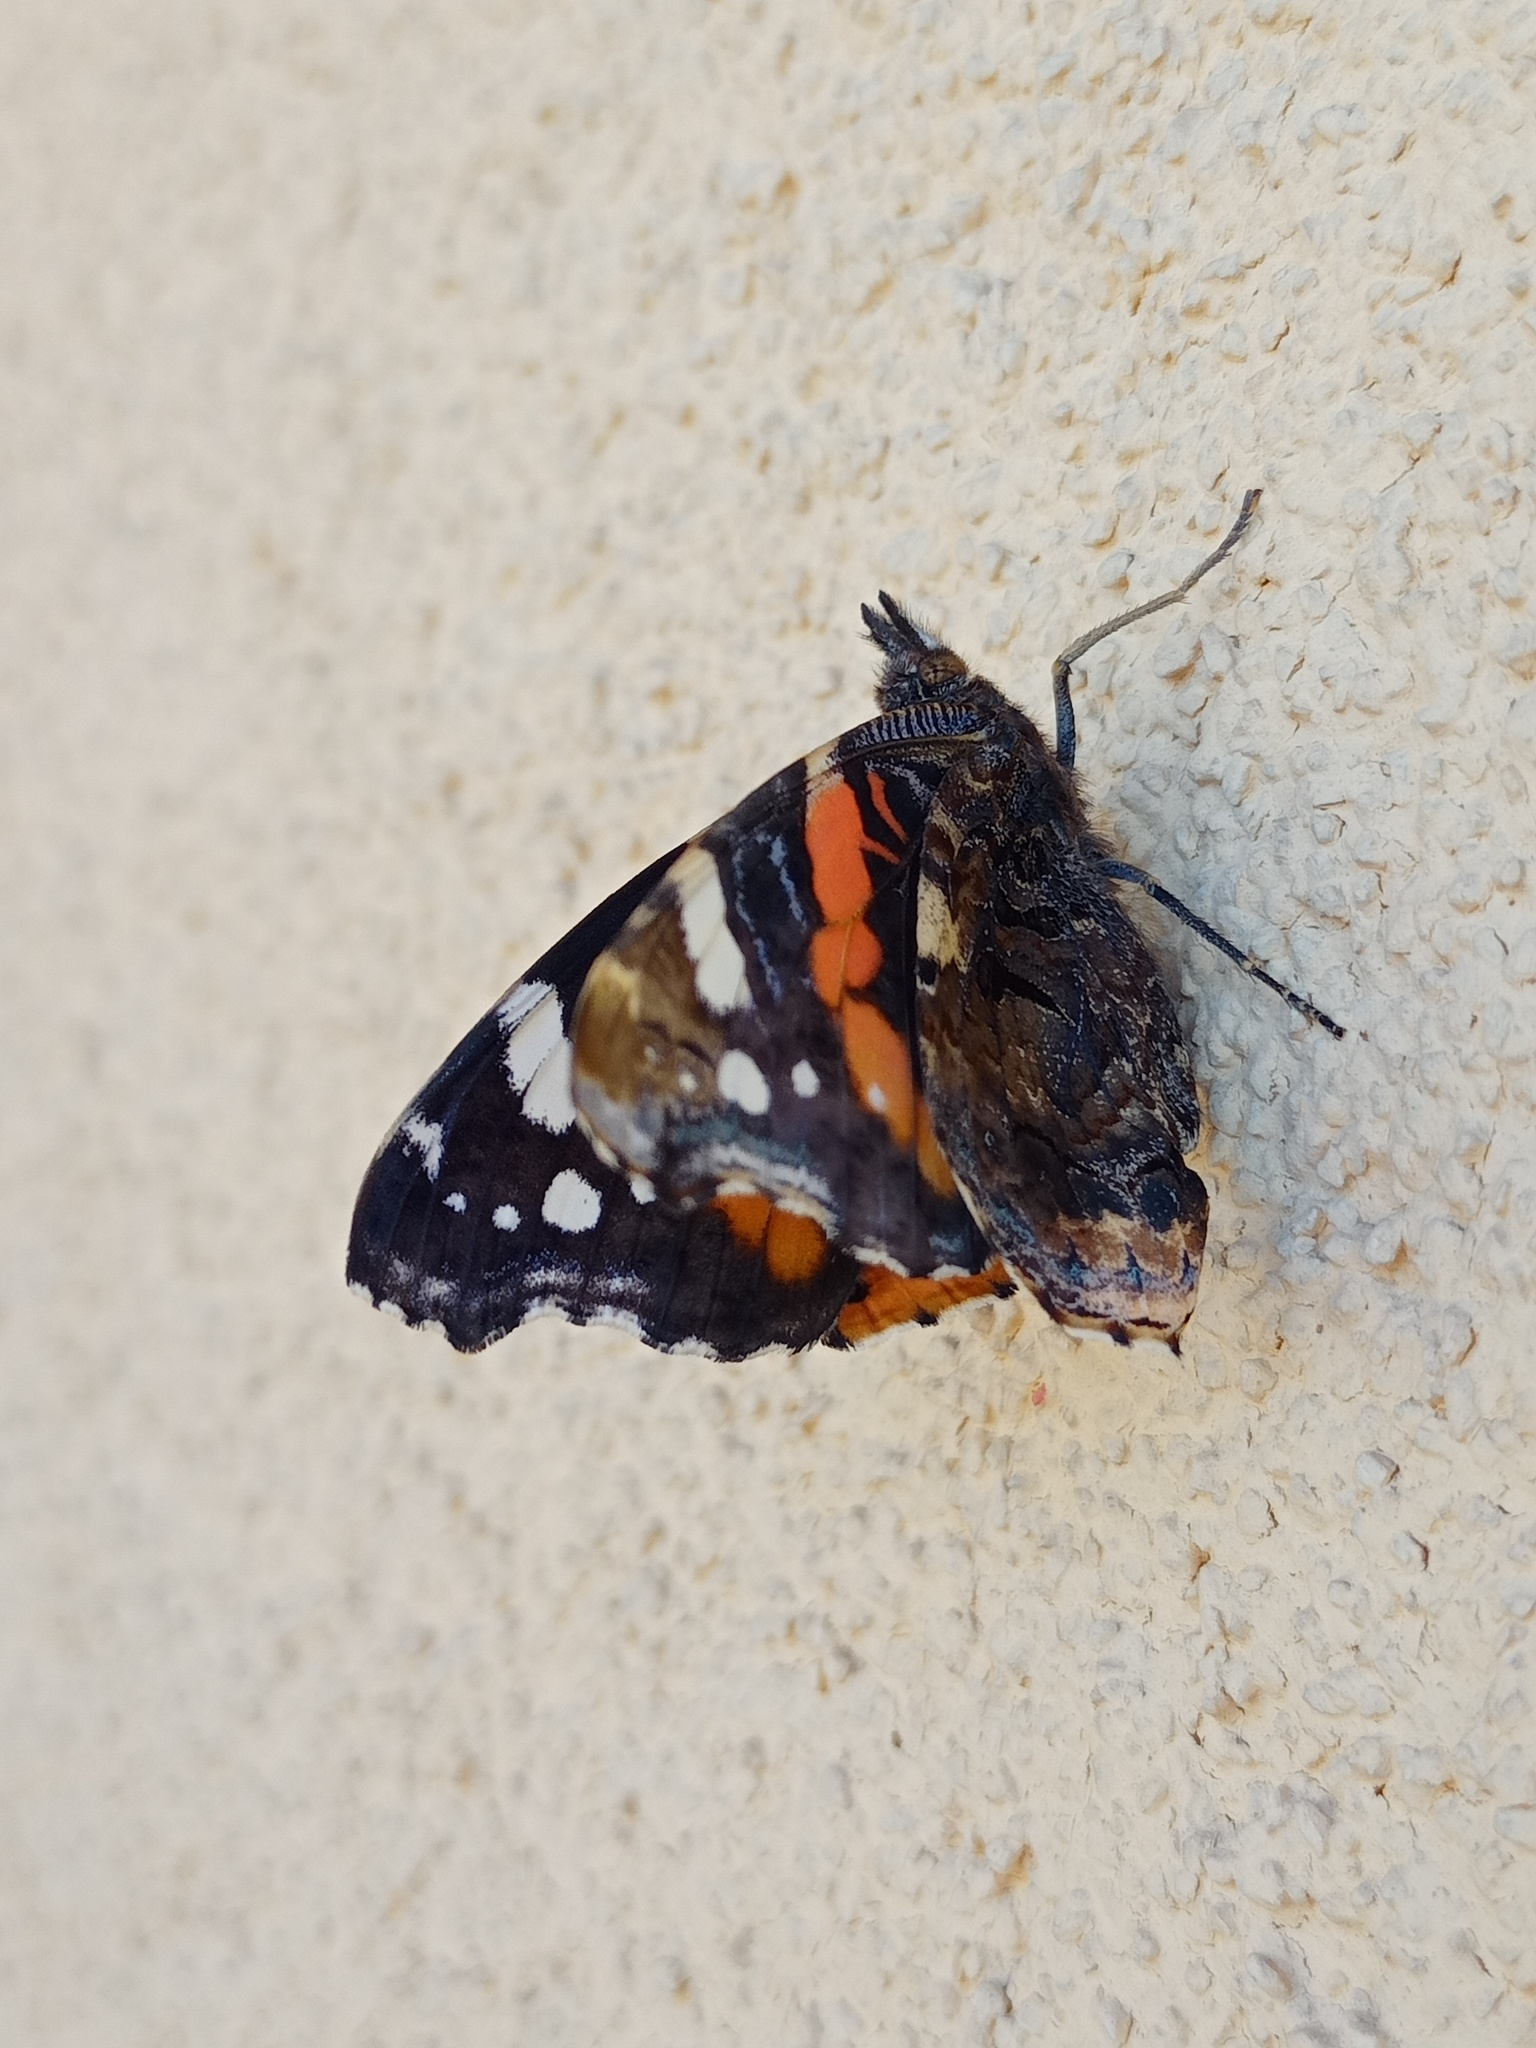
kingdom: Animalia
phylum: Arthropoda
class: Insecta
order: Lepidoptera
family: Nymphalidae
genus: Vanessa
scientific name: Vanessa atalanta
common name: Red admiral
